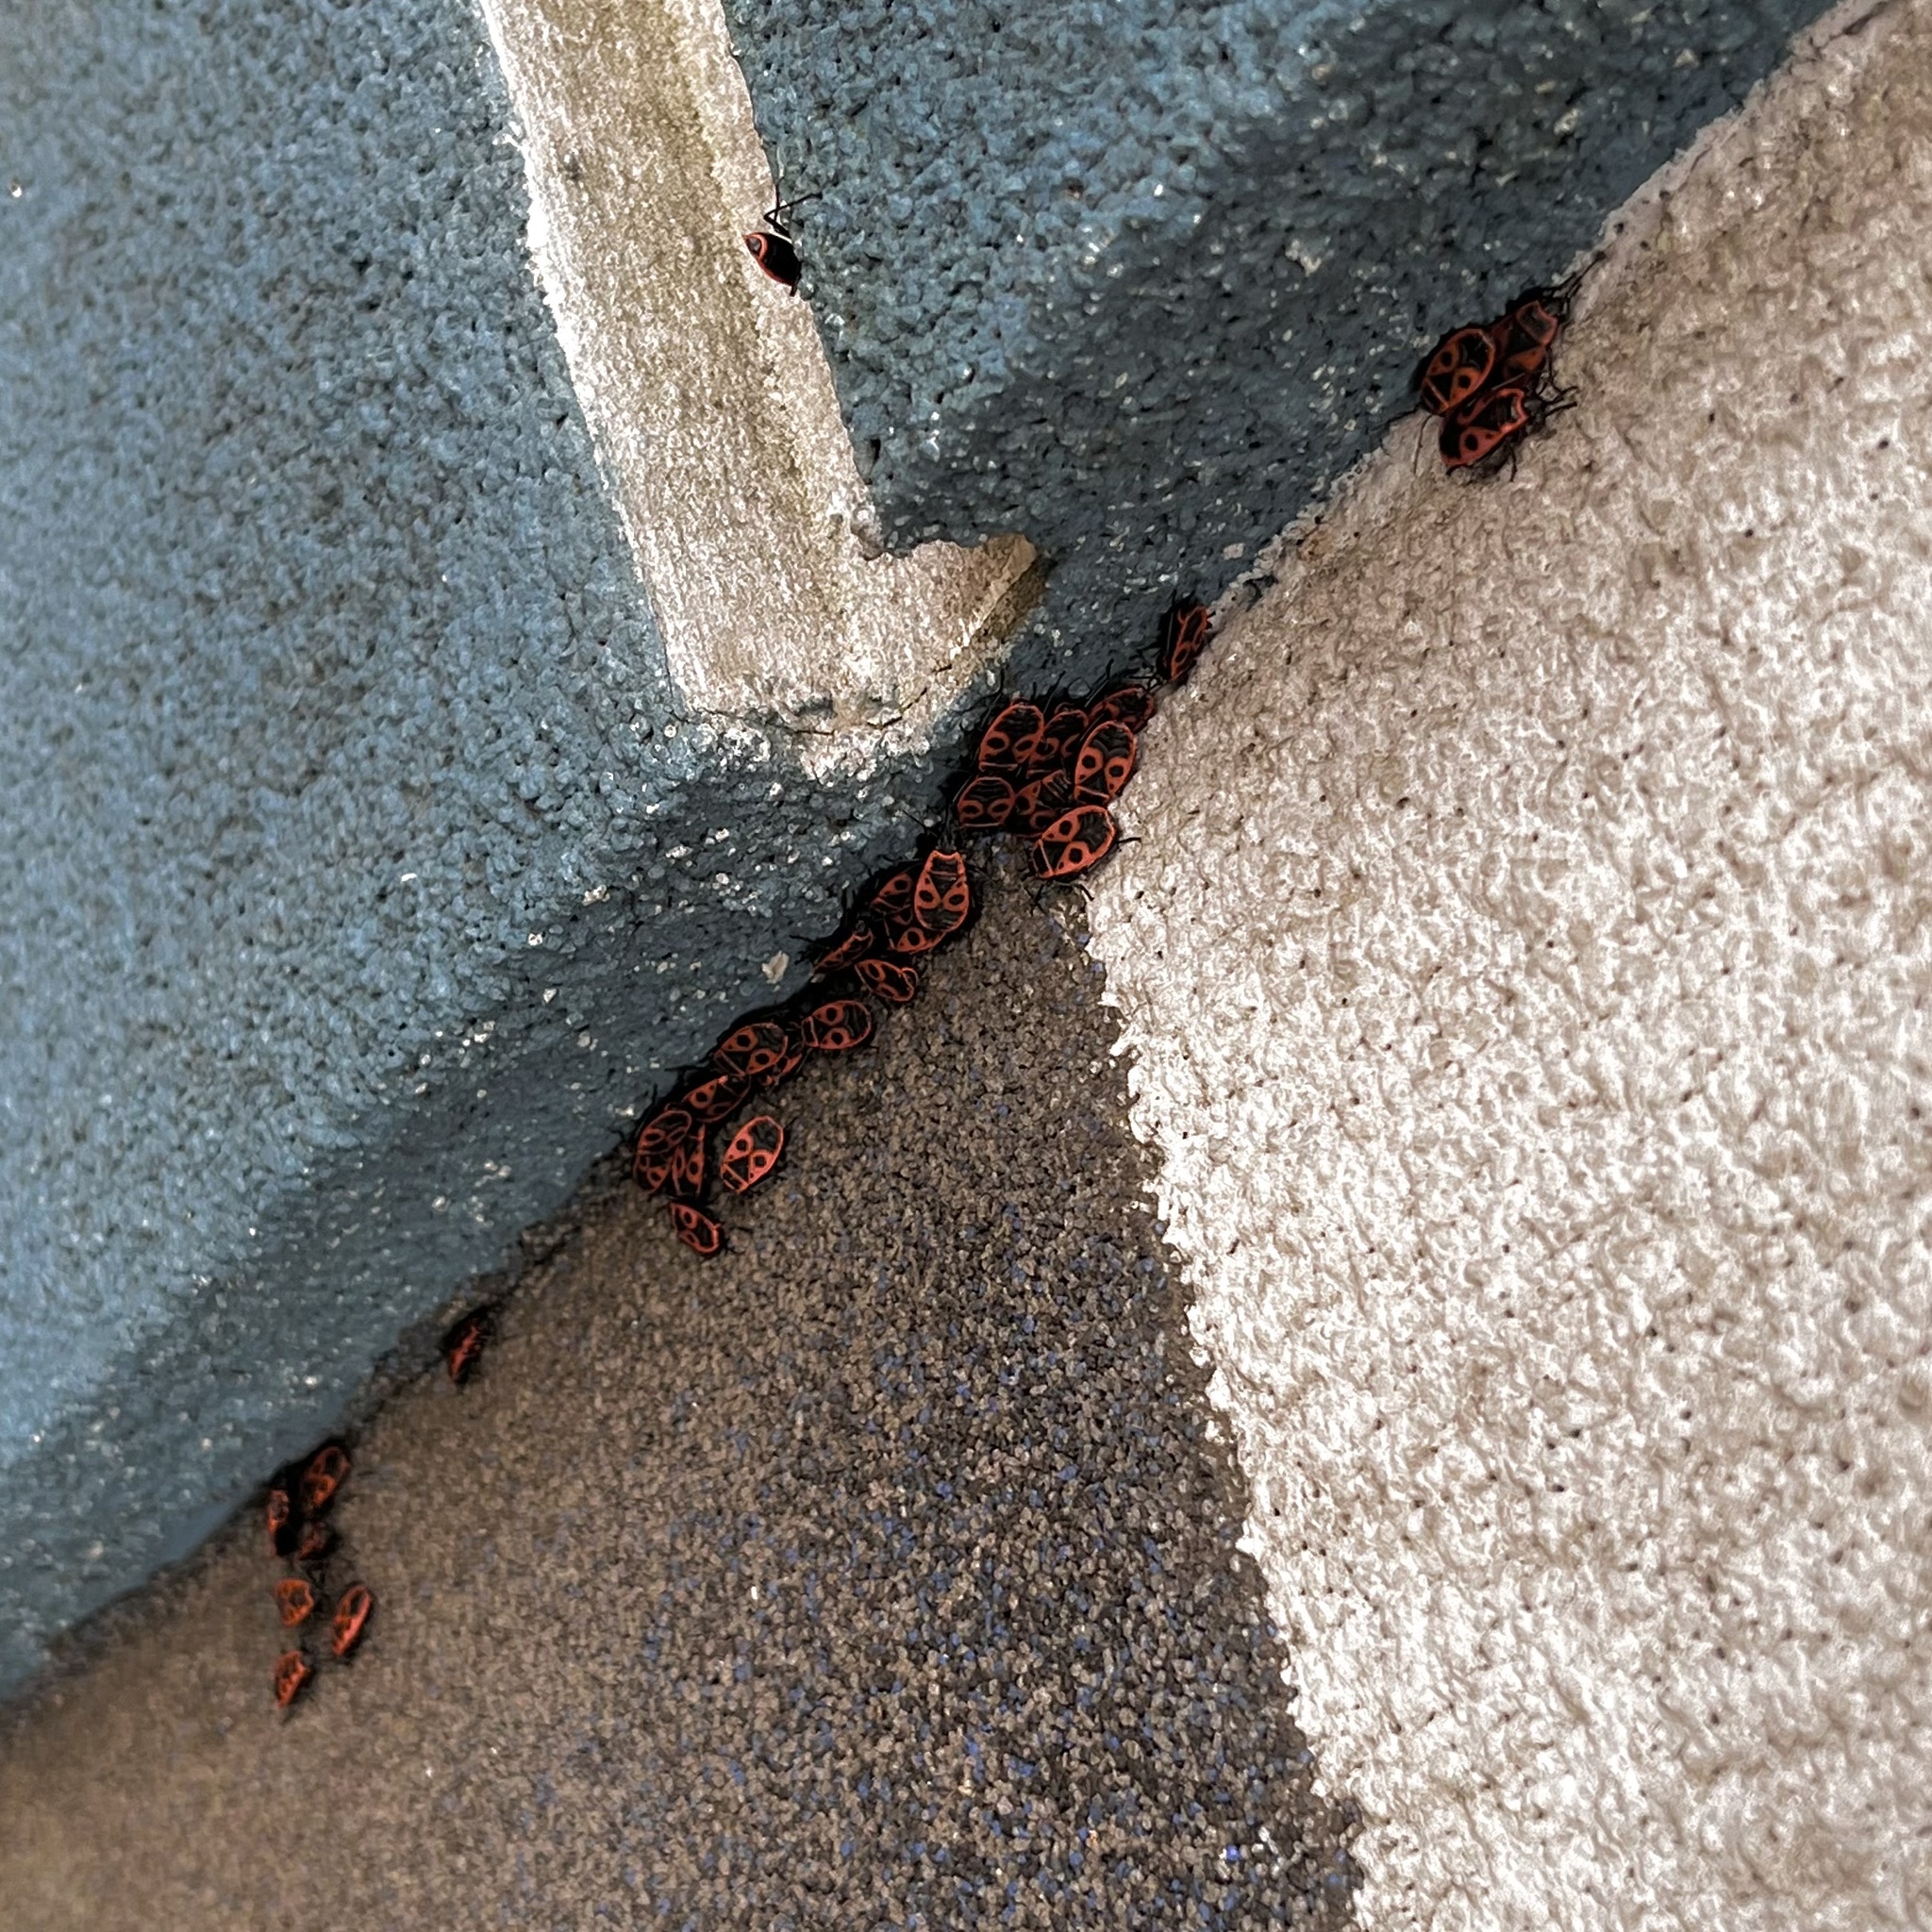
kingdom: Animalia
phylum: Arthropoda
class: Insecta
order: Hemiptera
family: Pyrrhocoridae
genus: Pyrrhocoris
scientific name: Pyrrhocoris apterus
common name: Firebug
